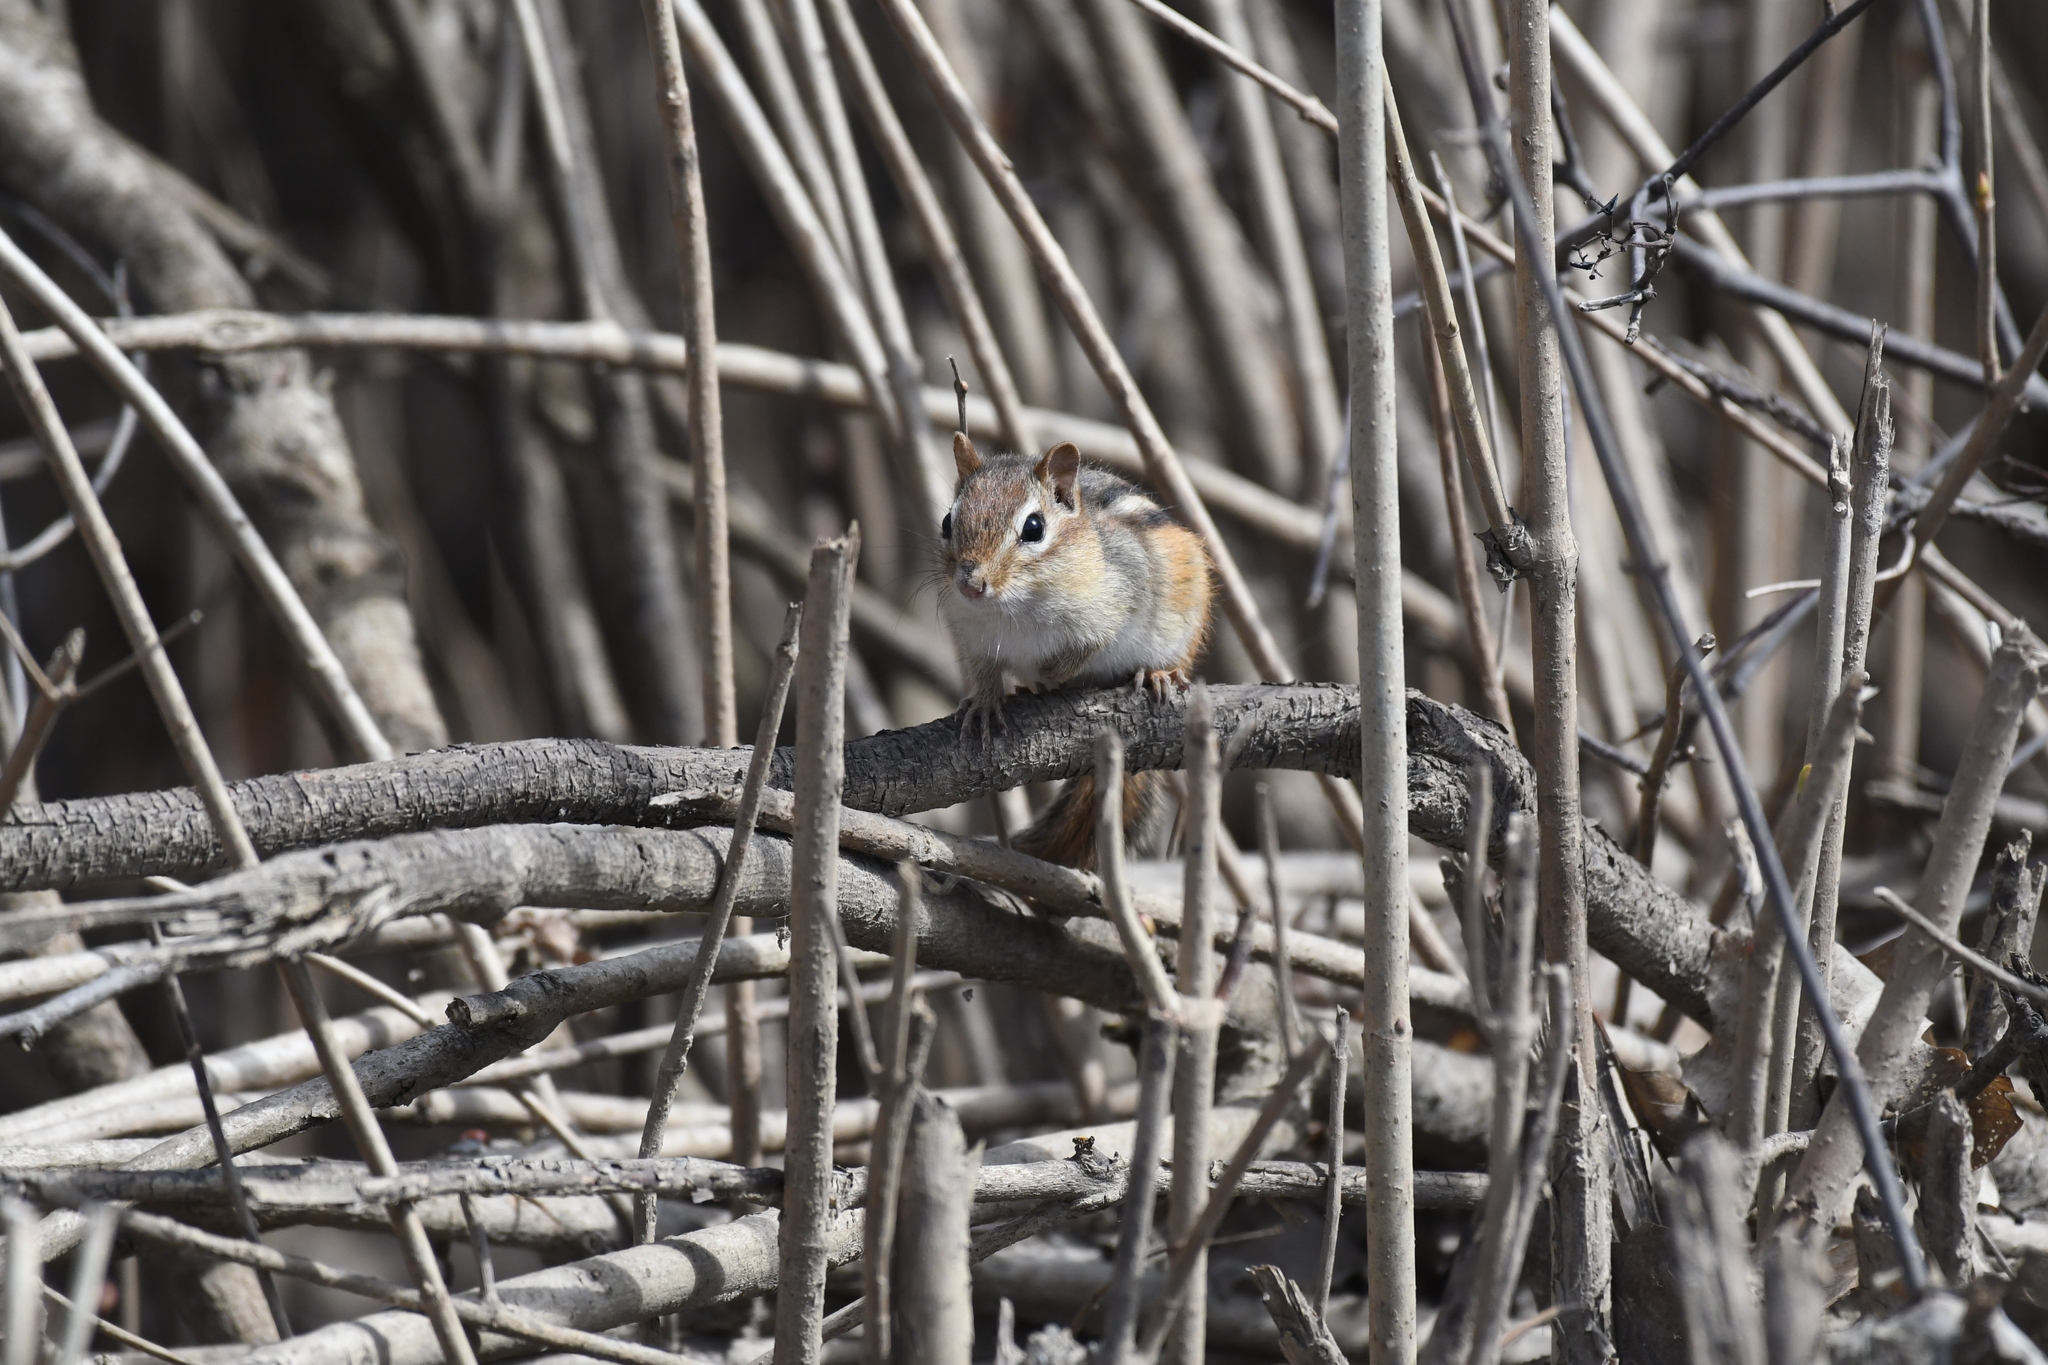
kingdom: Animalia
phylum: Chordata
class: Mammalia
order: Rodentia
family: Sciuridae
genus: Tamias
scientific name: Tamias striatus
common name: Eastern chipmunk
